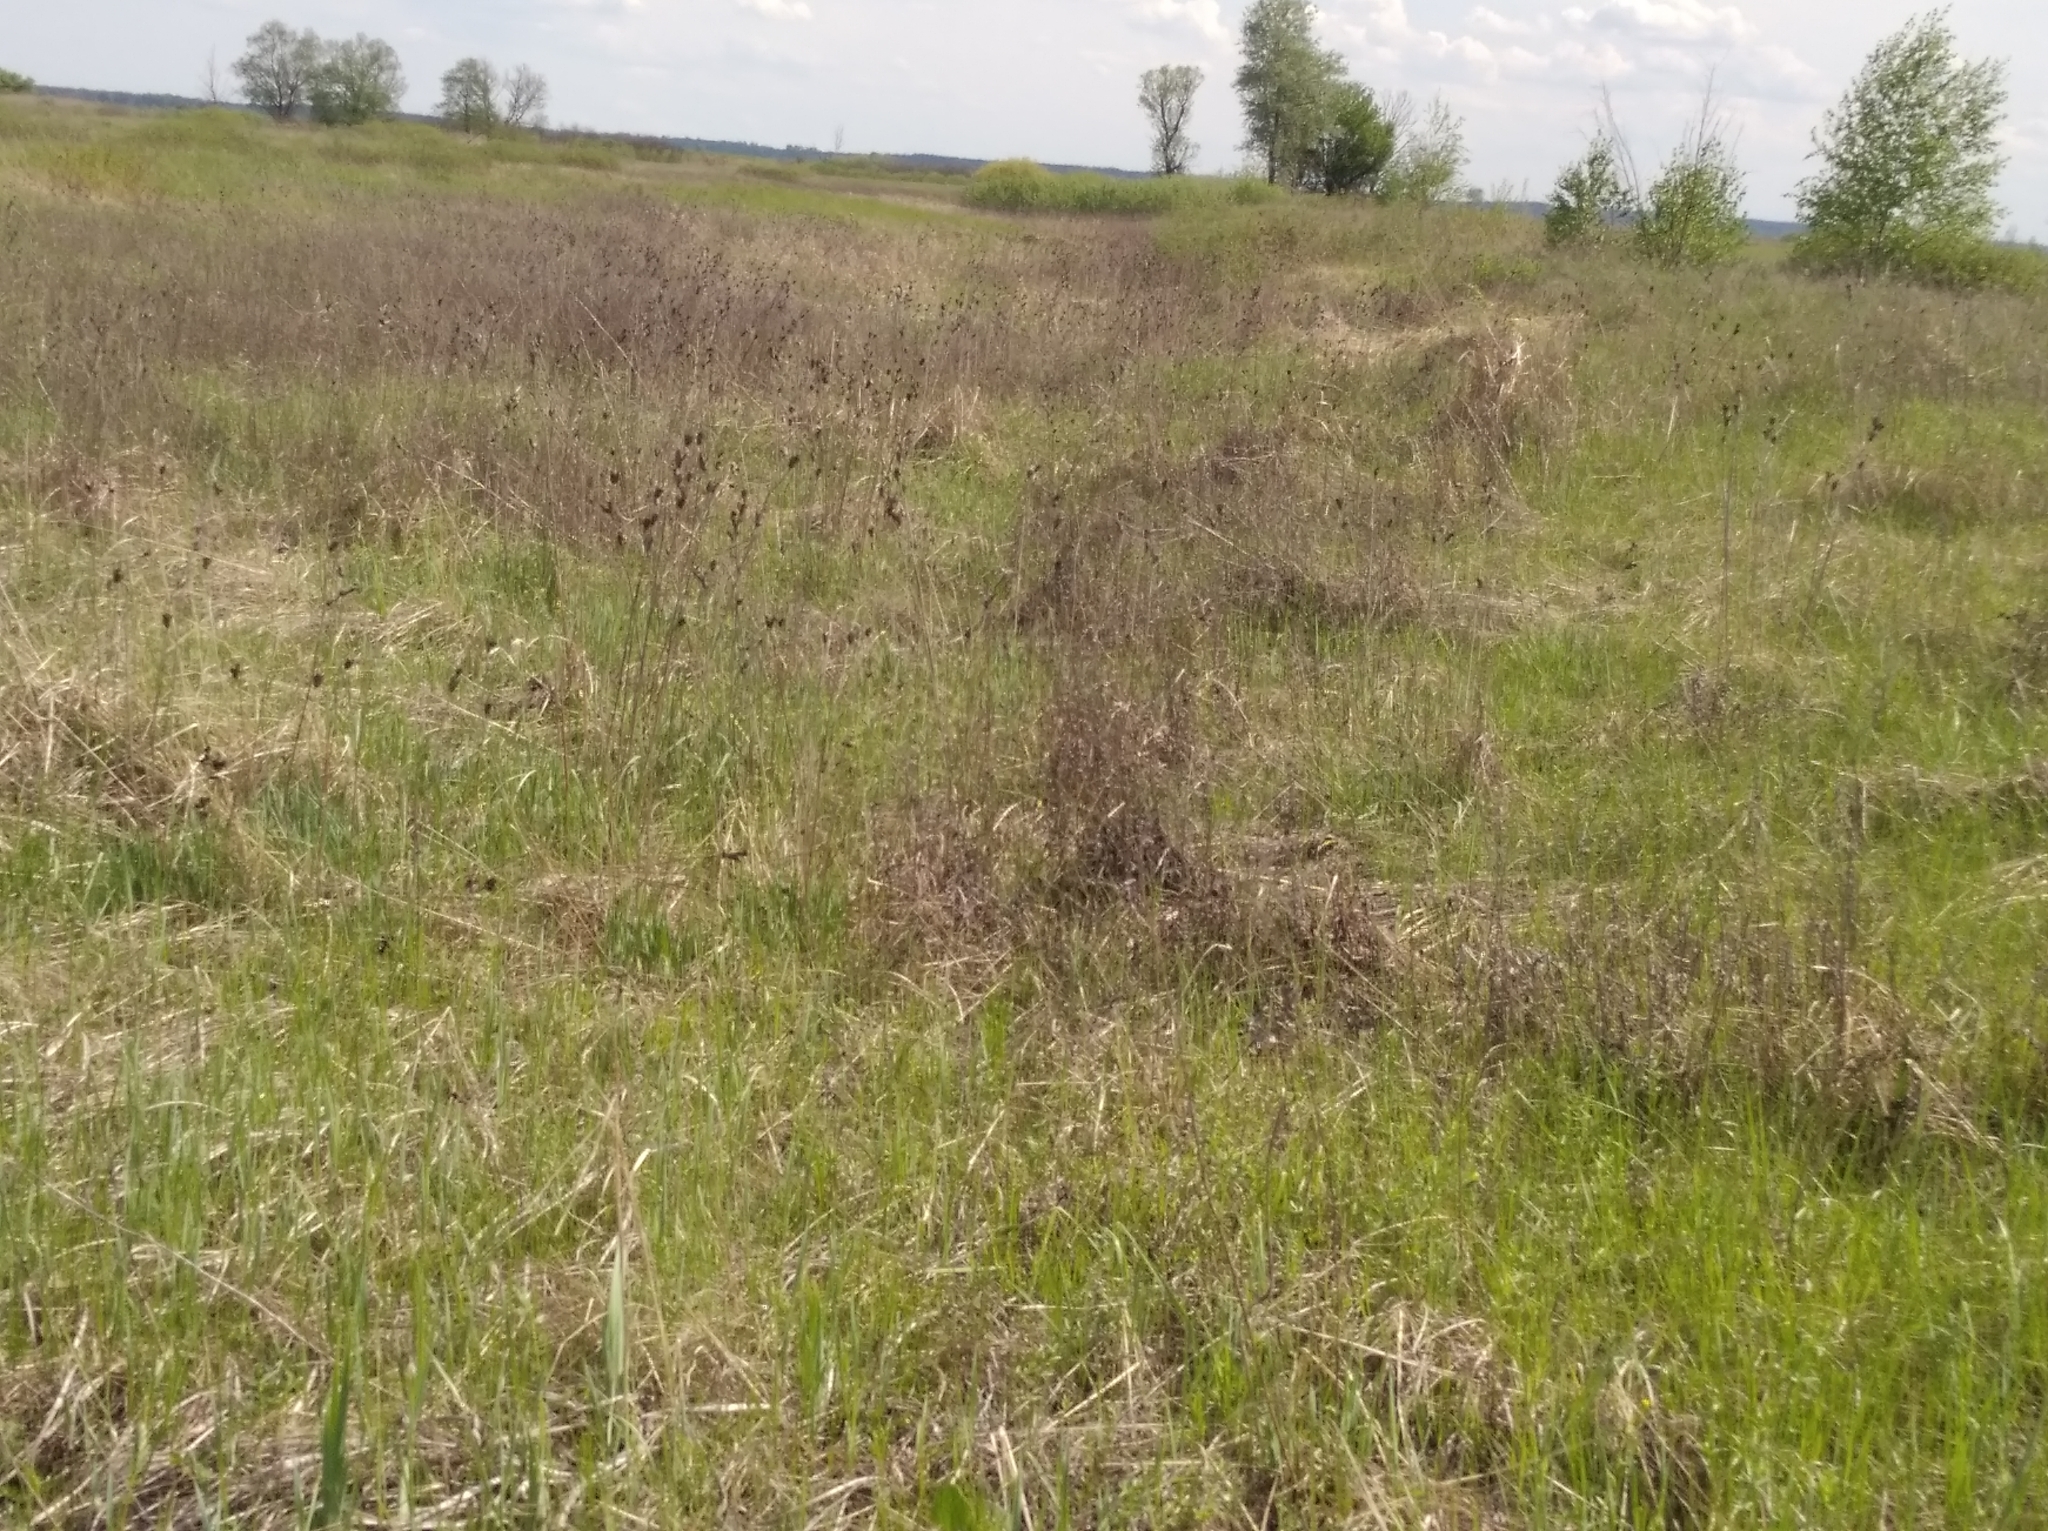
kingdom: Plantae
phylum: Tracheophyta
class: Liliopsida
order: Asparagales
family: Iridaceae
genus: Iris
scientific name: Iris sibirica
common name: Siberian iris
